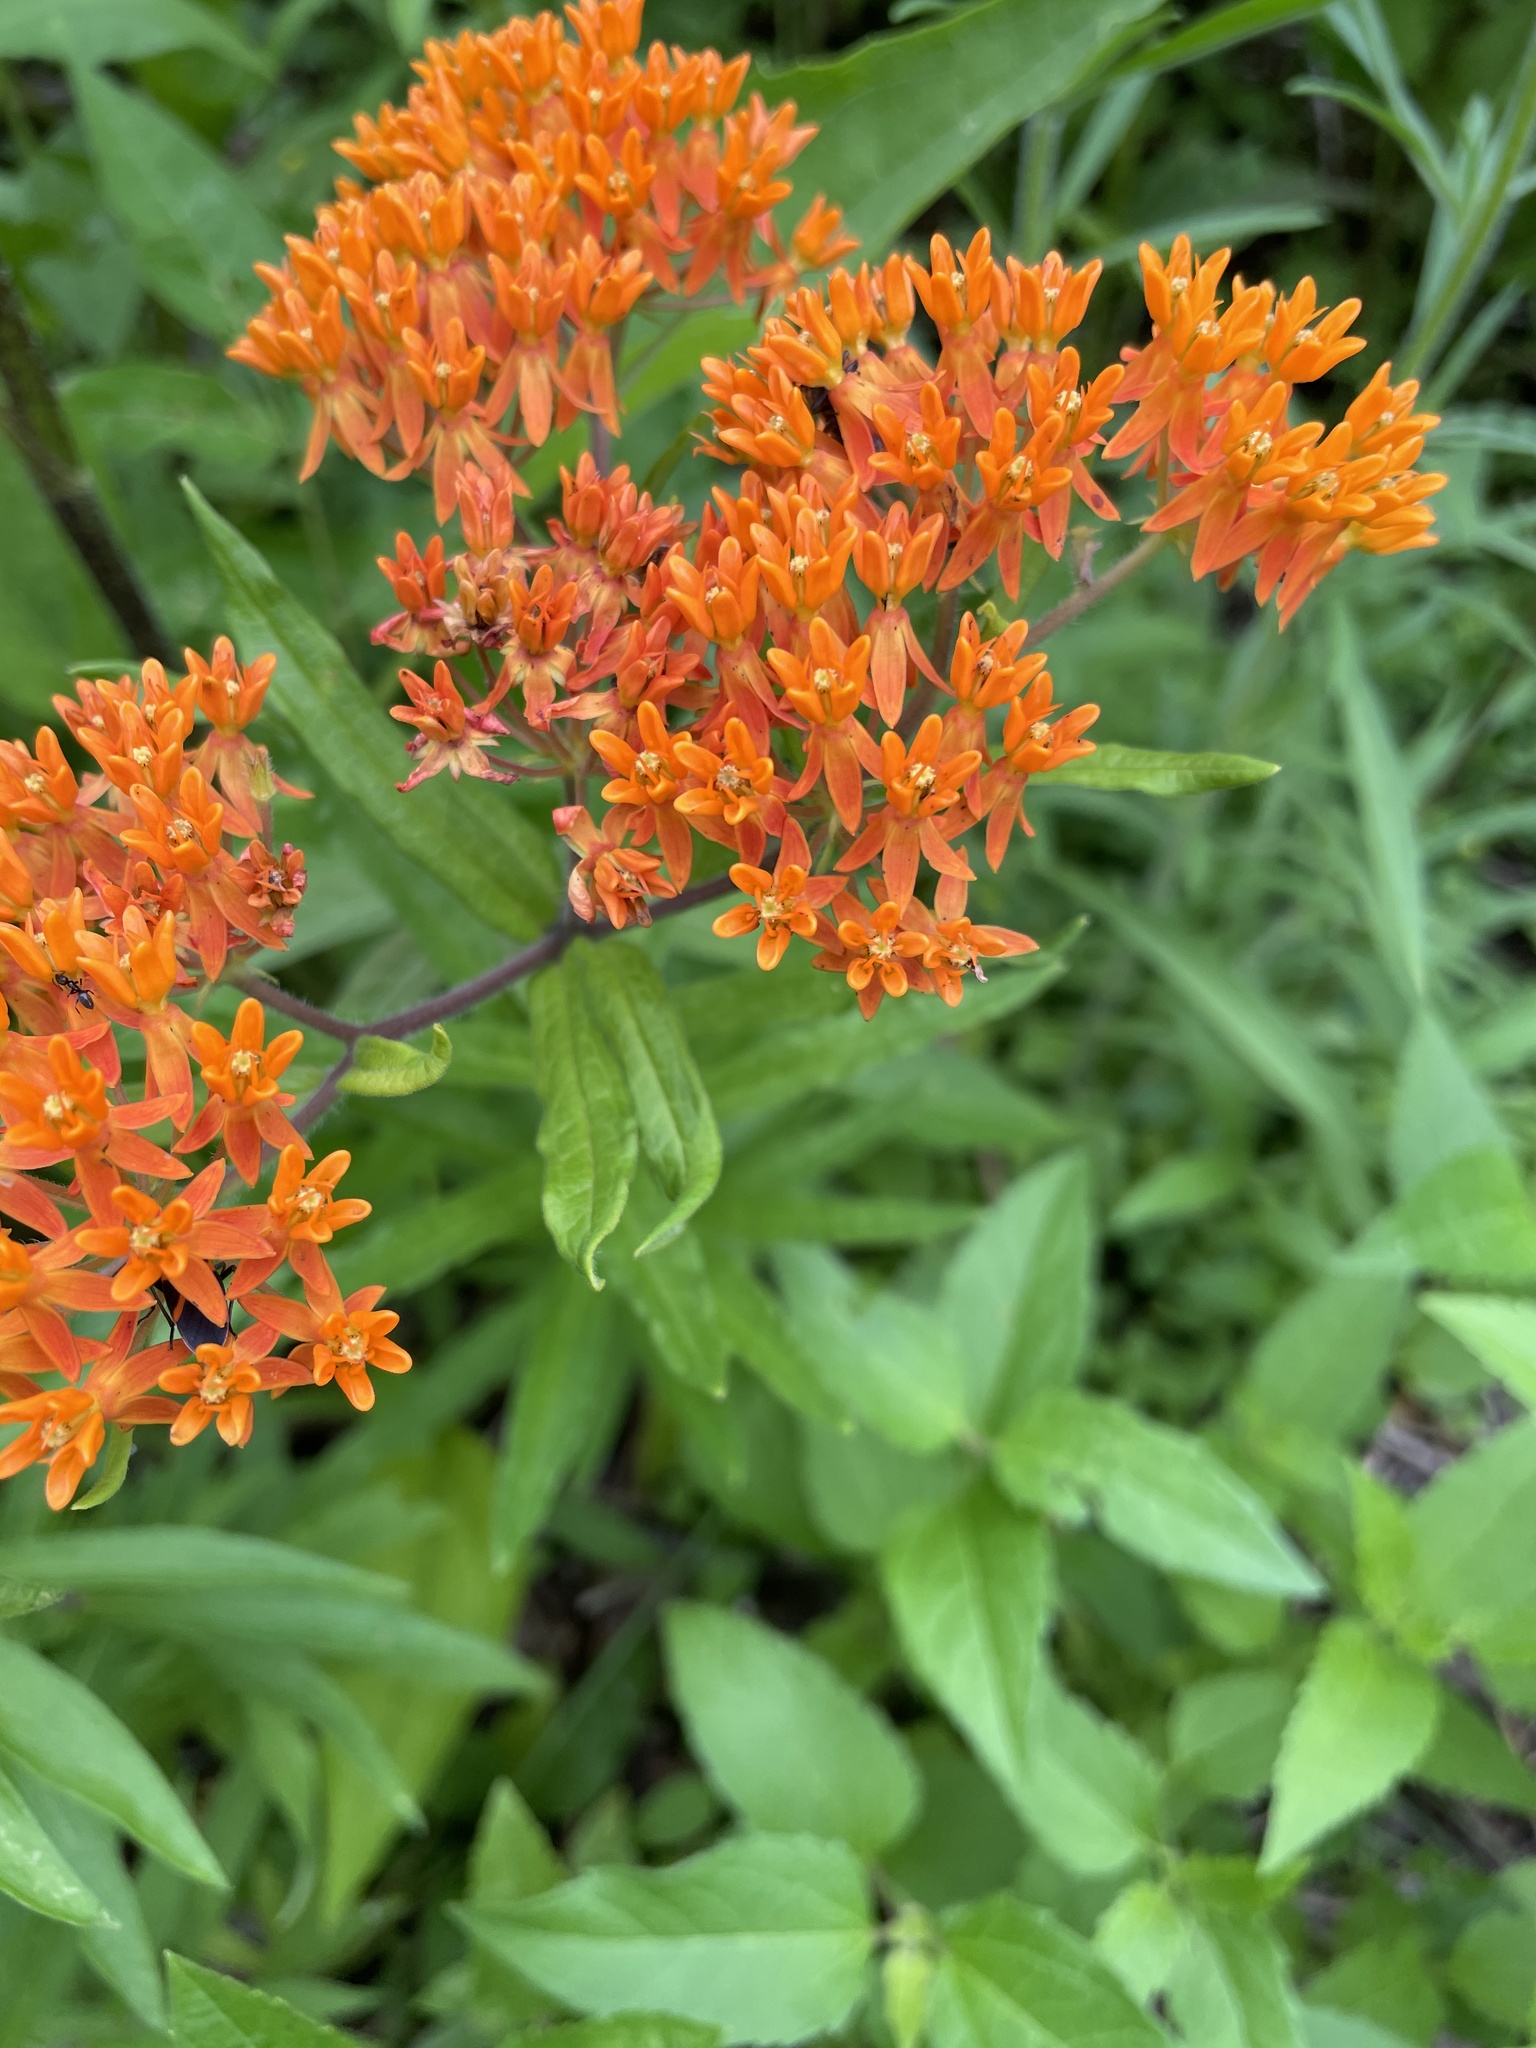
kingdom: Plantae
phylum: Tracheophyta
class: Magnoliopsida
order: Gentianales
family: Apocynaceae
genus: Asclepias
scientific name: Asclepias tuberosa
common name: Butterfly milkweed
